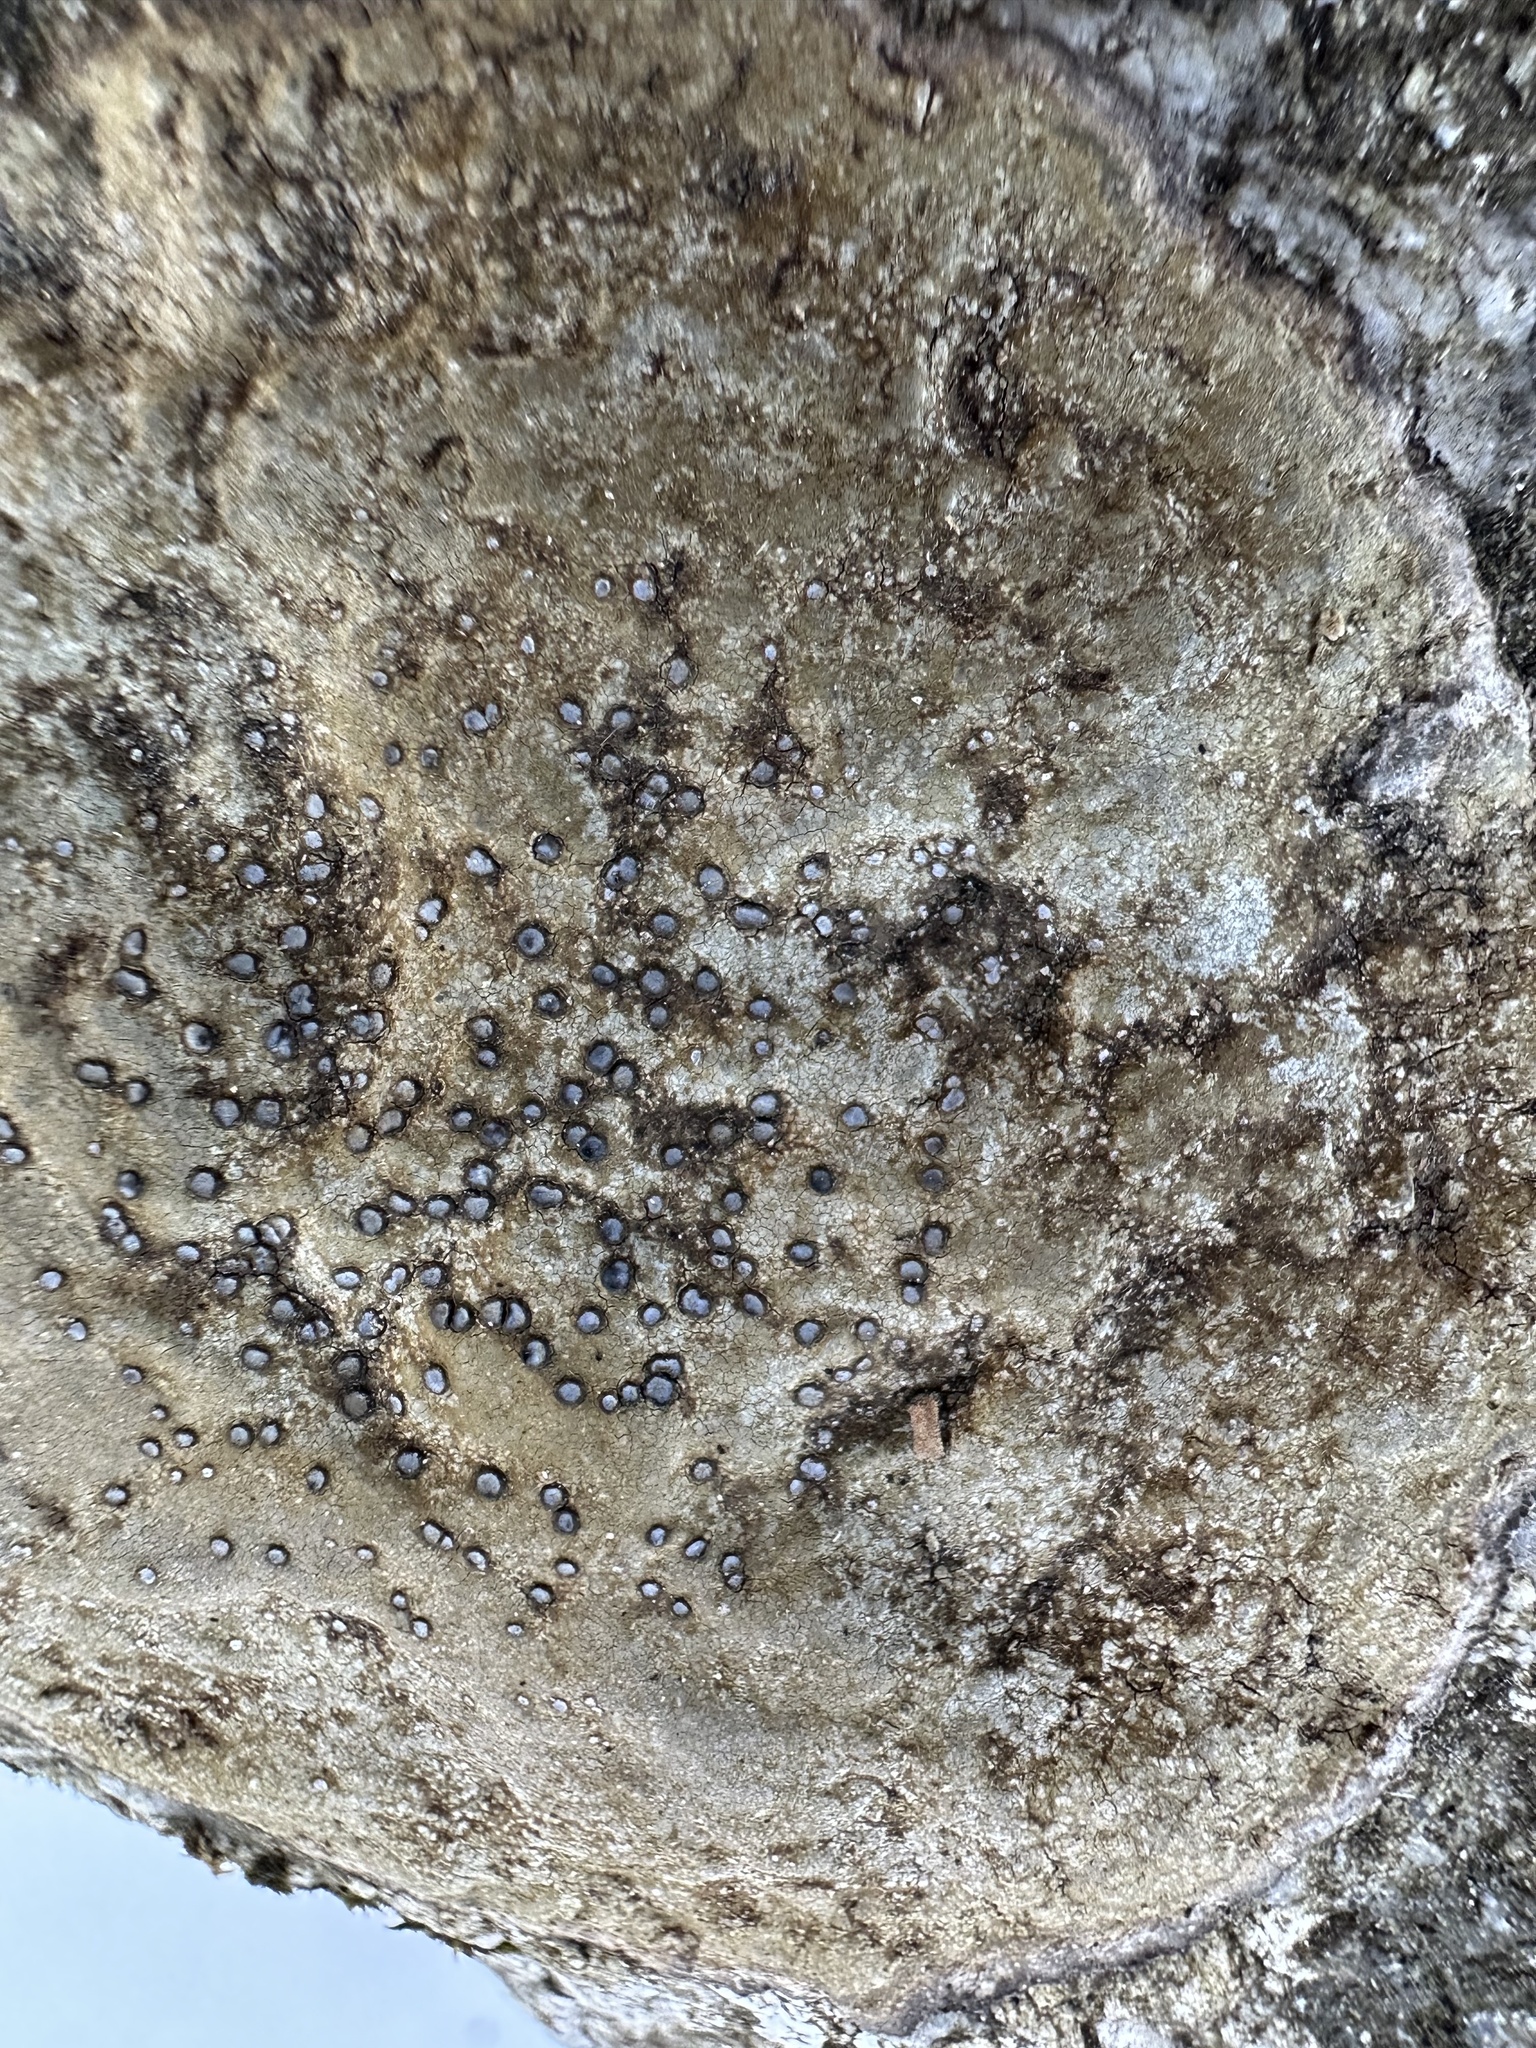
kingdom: Fungi
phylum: Ascomycota
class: Lecanoromycetes
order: Lecideales
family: Lecideaceae
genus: Porpidia
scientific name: Porpidia albocaerulescens
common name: Smokey-eyed boulder lichen
